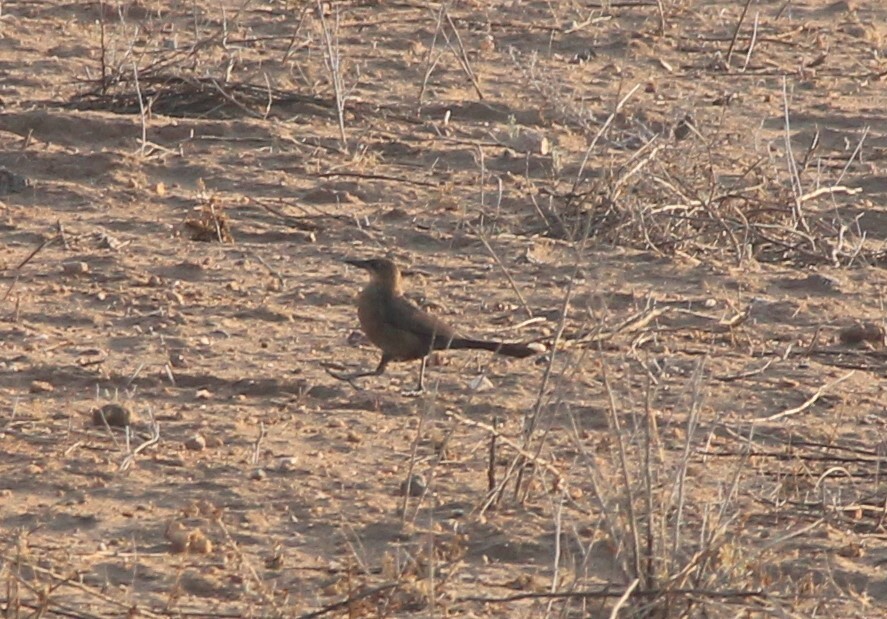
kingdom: Animalia
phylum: Chordata
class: Aves
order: Passeriformes
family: Icteridae
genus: Quiscalus
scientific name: Quiscalus mexicanus
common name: Great-tailed grackle
